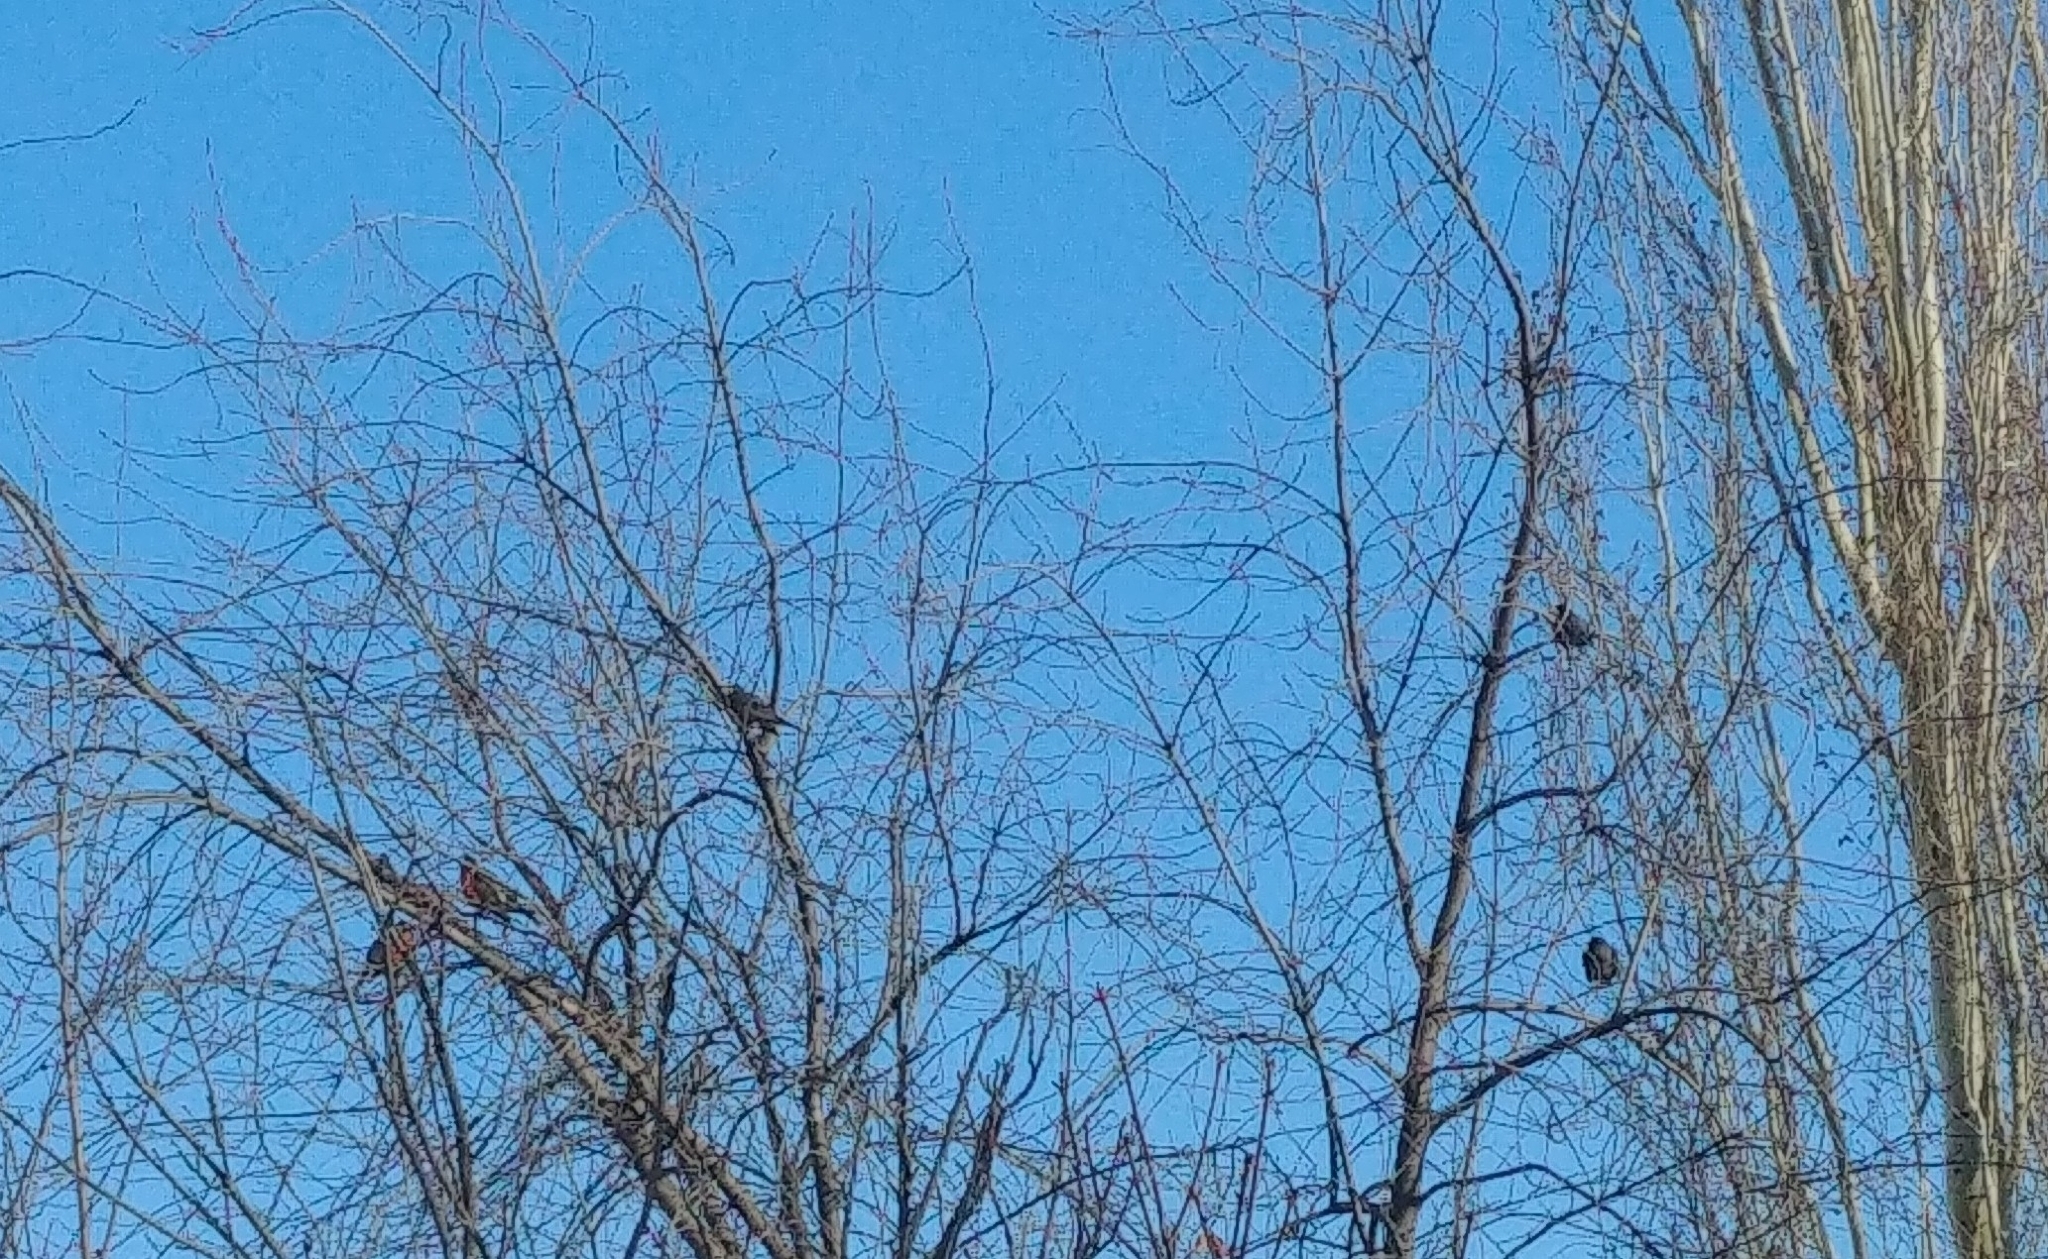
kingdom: Animalia
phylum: Chordata
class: Aves
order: Passeriformes
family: Turdidae
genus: Turdus
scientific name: Turdus migratorius
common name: American robin
